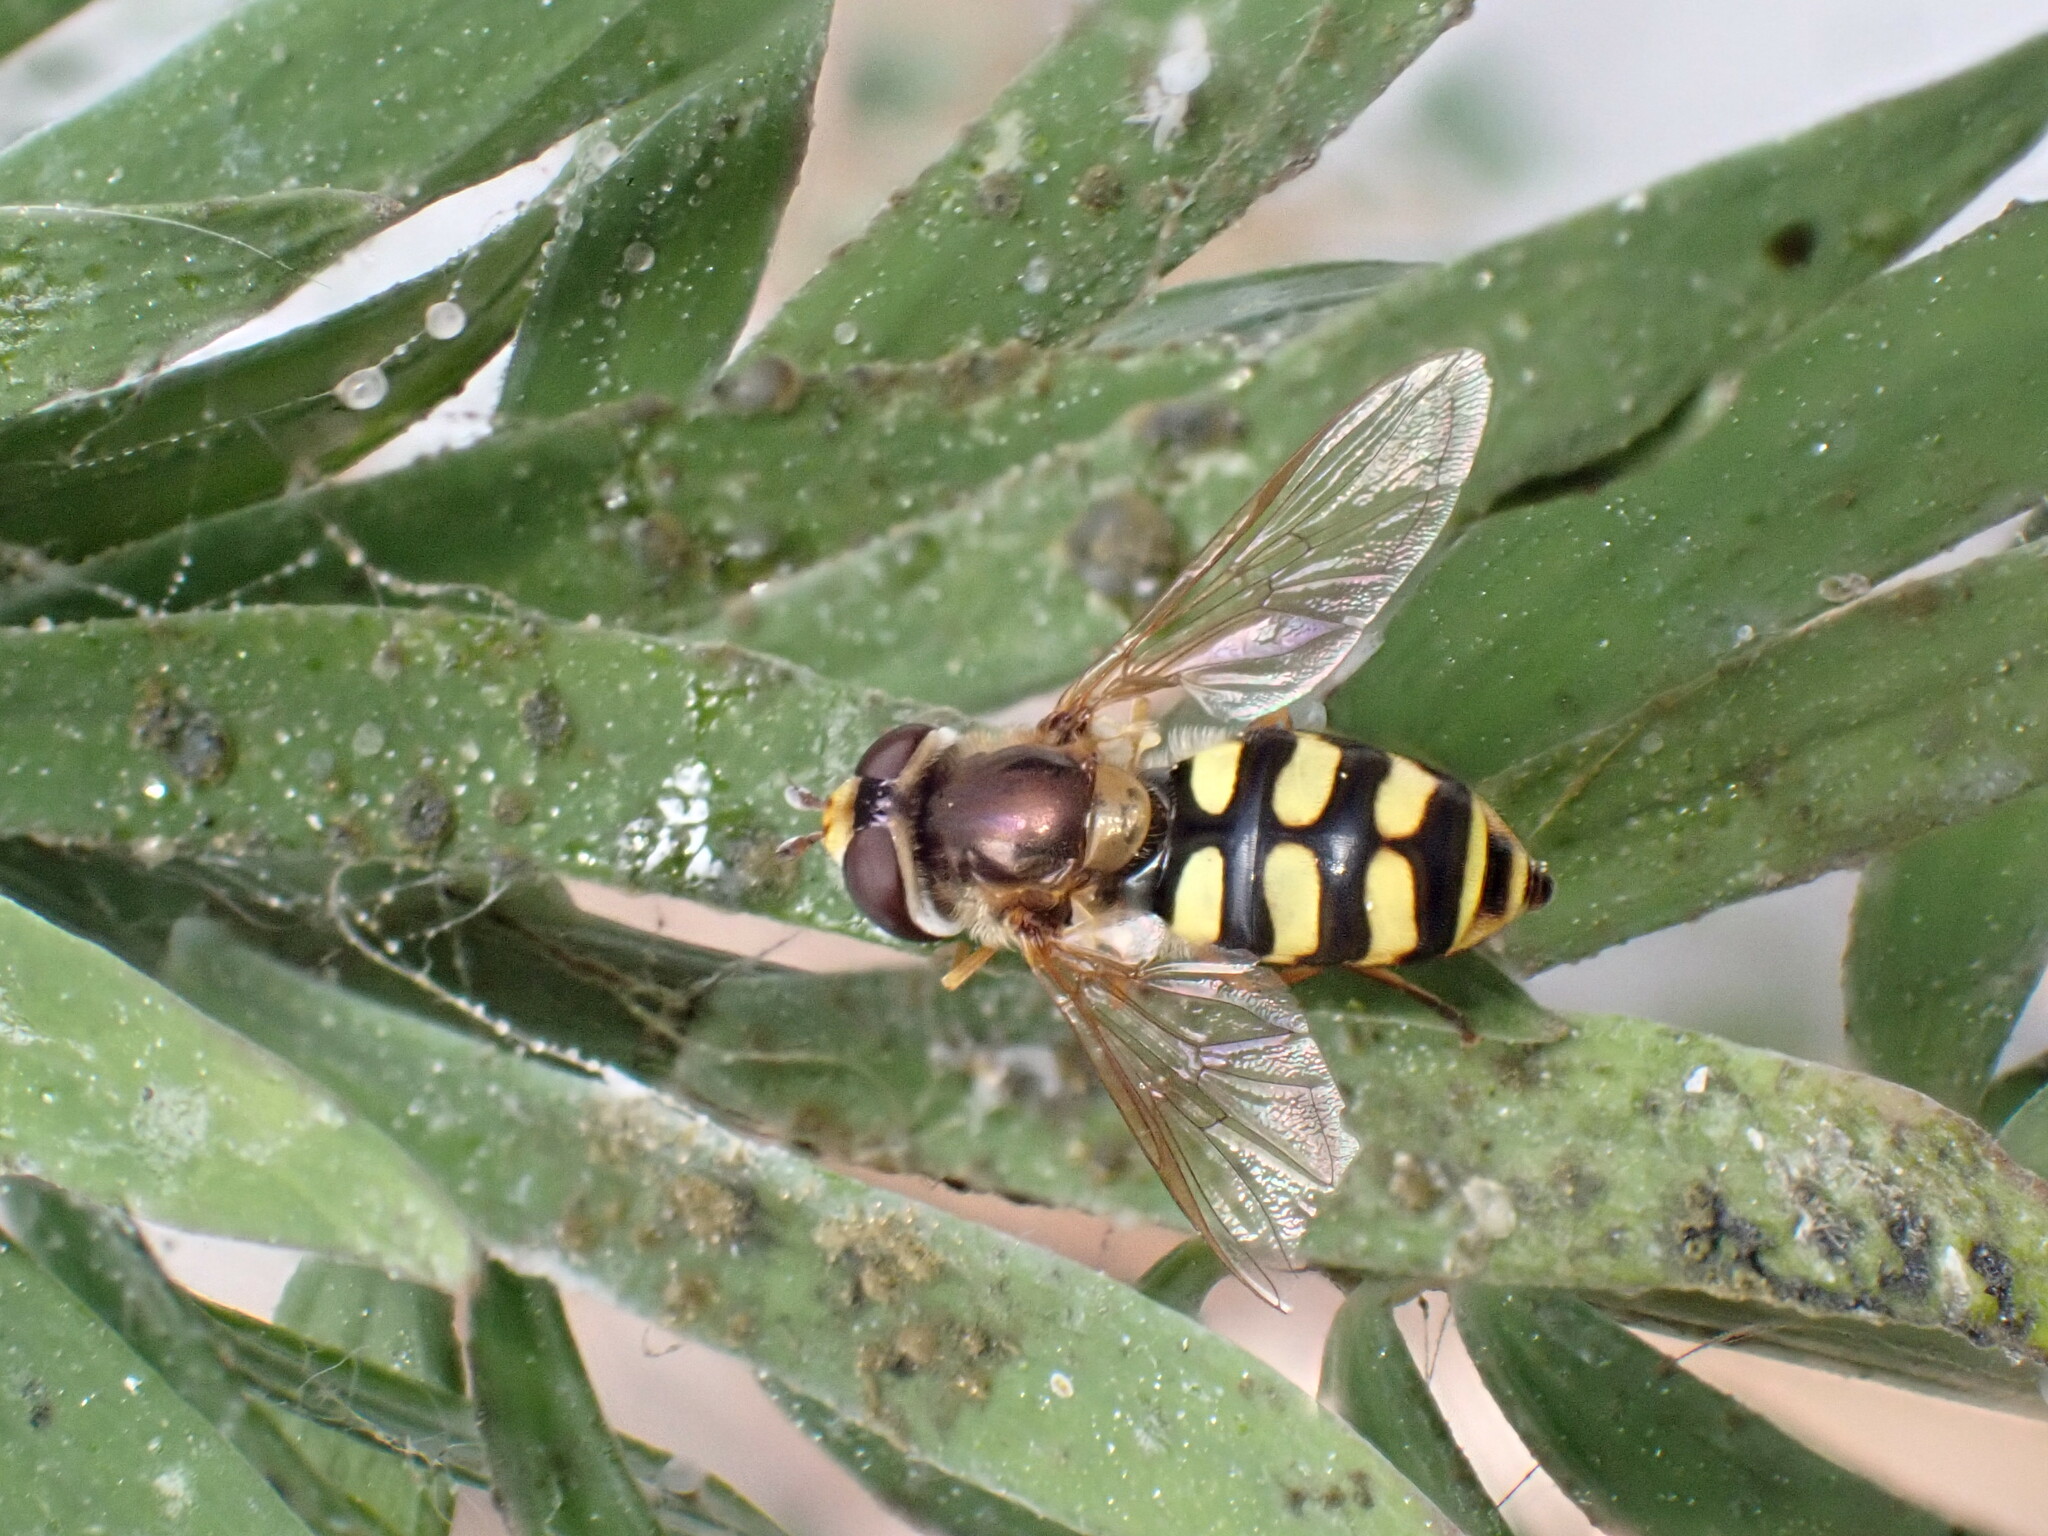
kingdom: Animalia
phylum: Arthropoda
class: Insecta
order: Diptera
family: Syrphidae
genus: Eupeodes
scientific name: Eupeodes corollae
